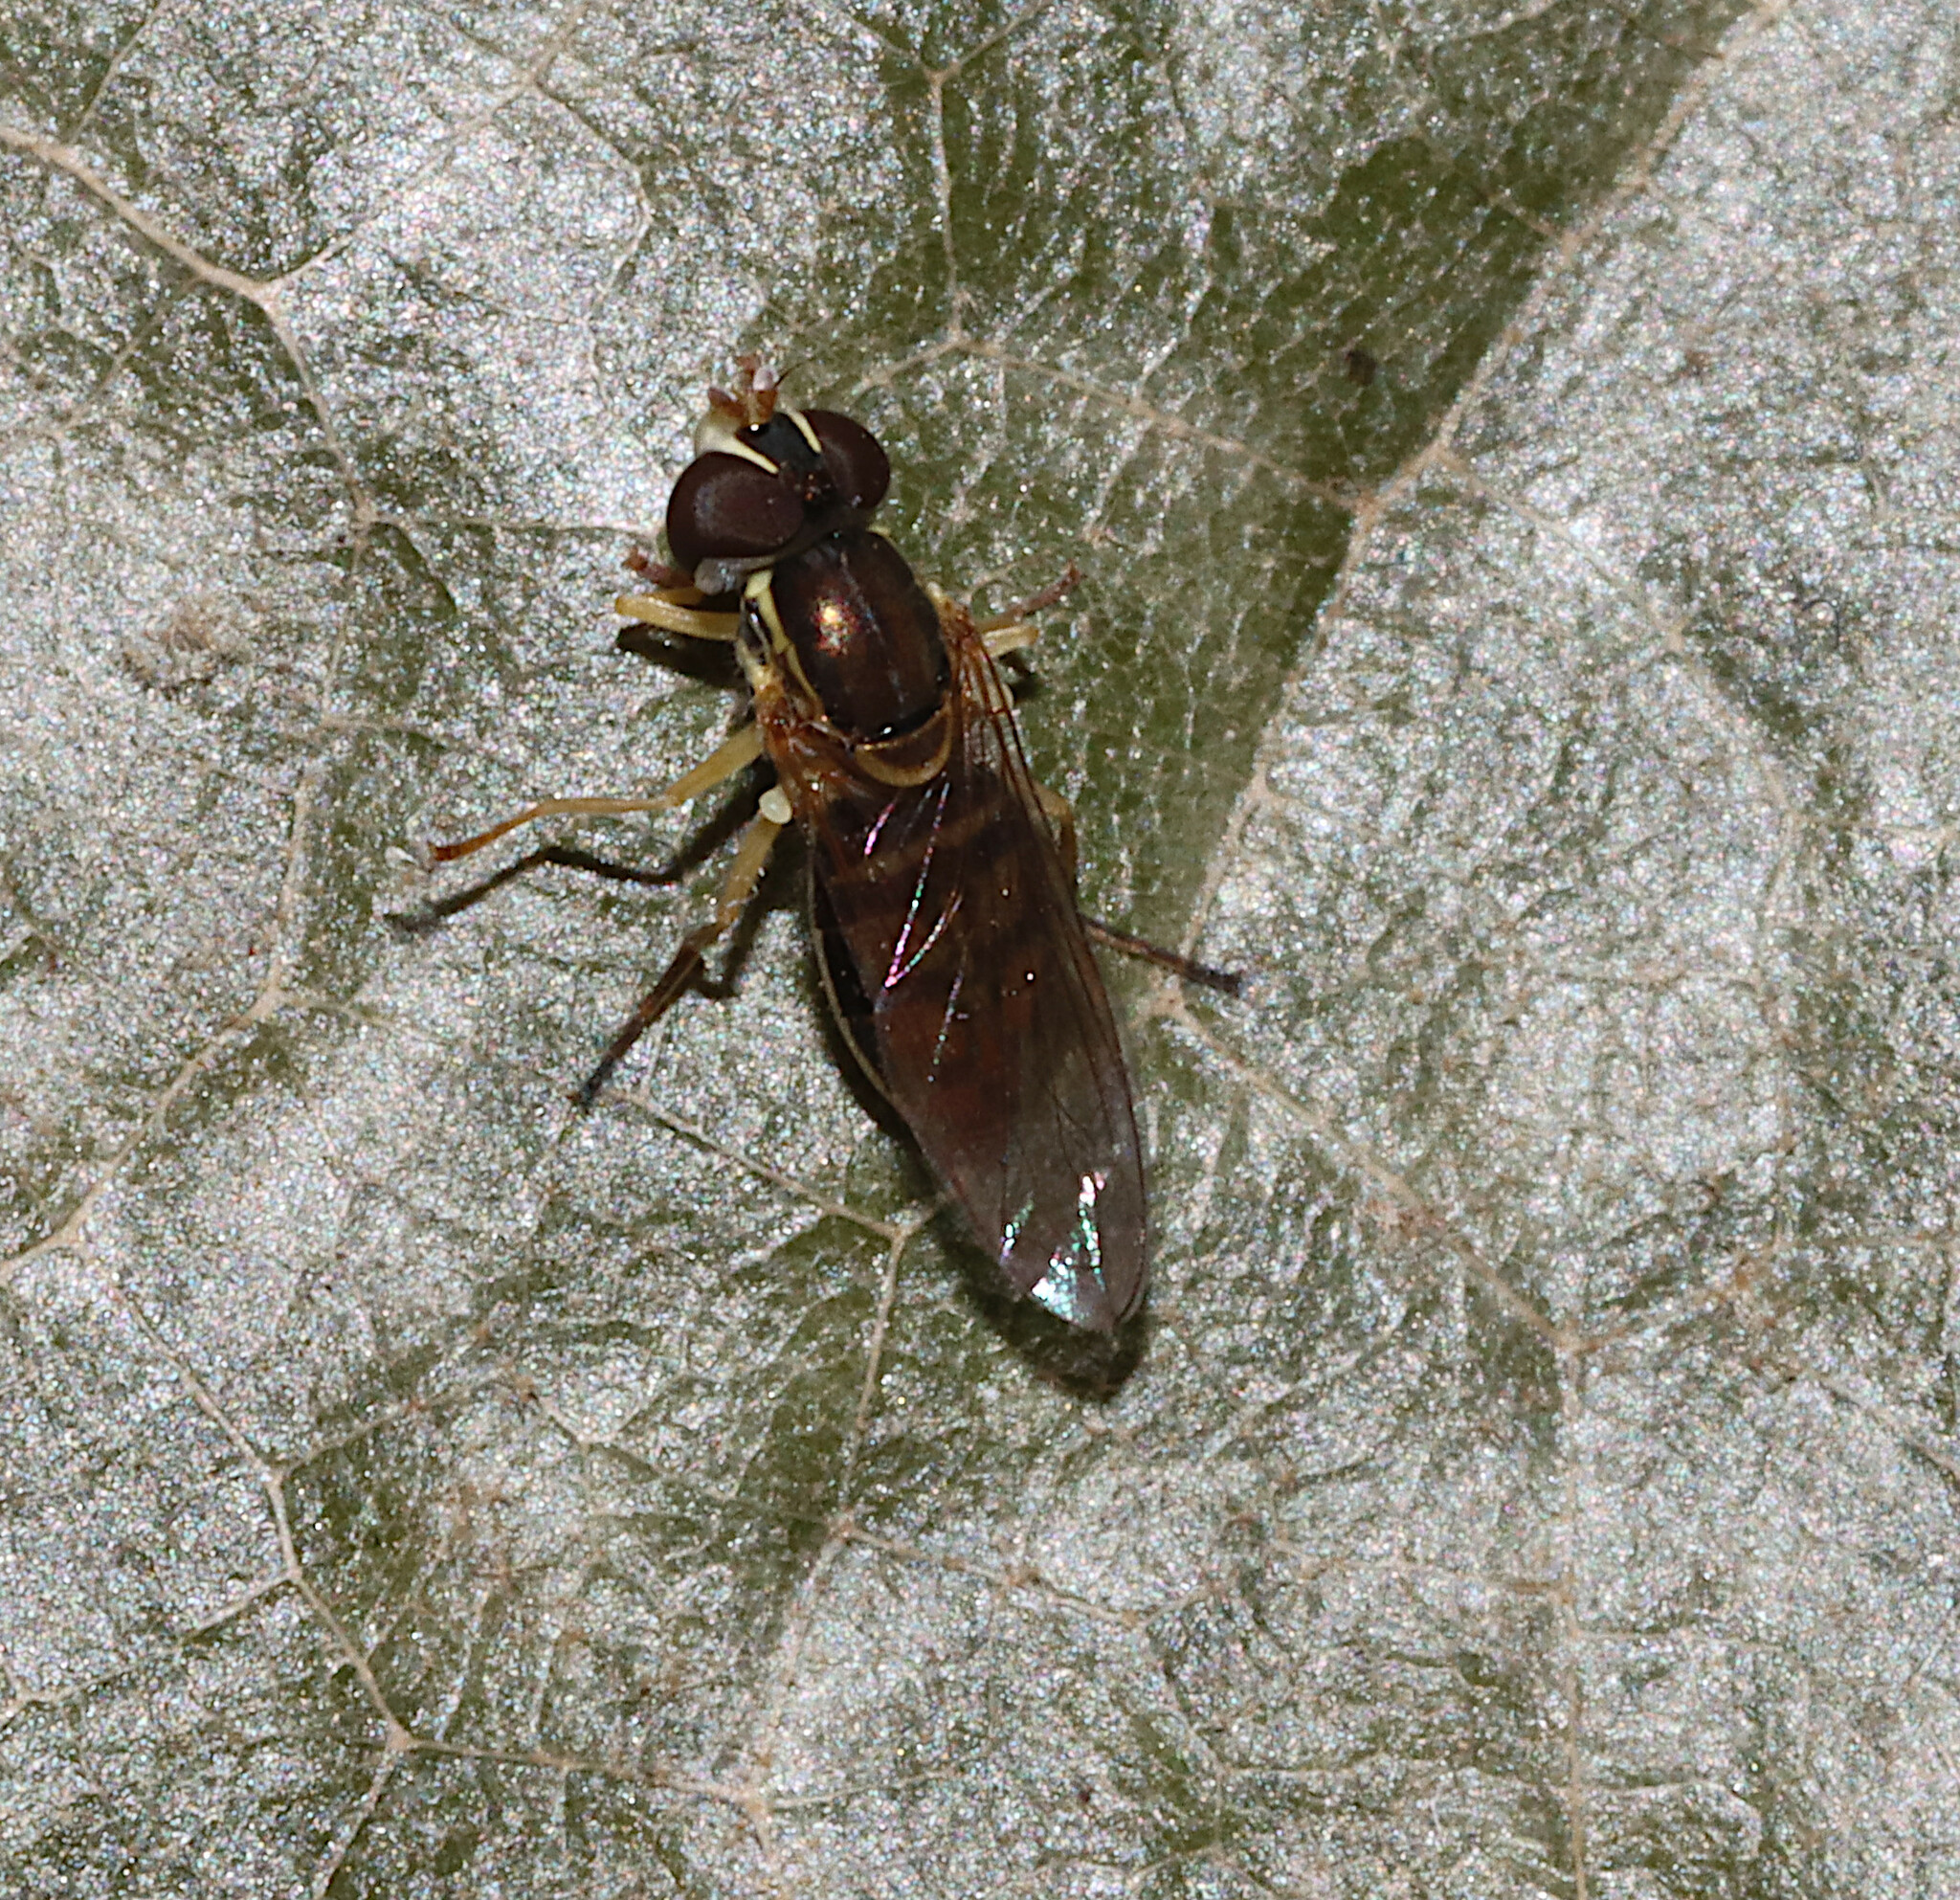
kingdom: Animalia
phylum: Arthropoda
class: Insecta
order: Diptera
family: Syrphidae
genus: Toxomerus
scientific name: Toxomerus marginatus
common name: Syrphid fly
